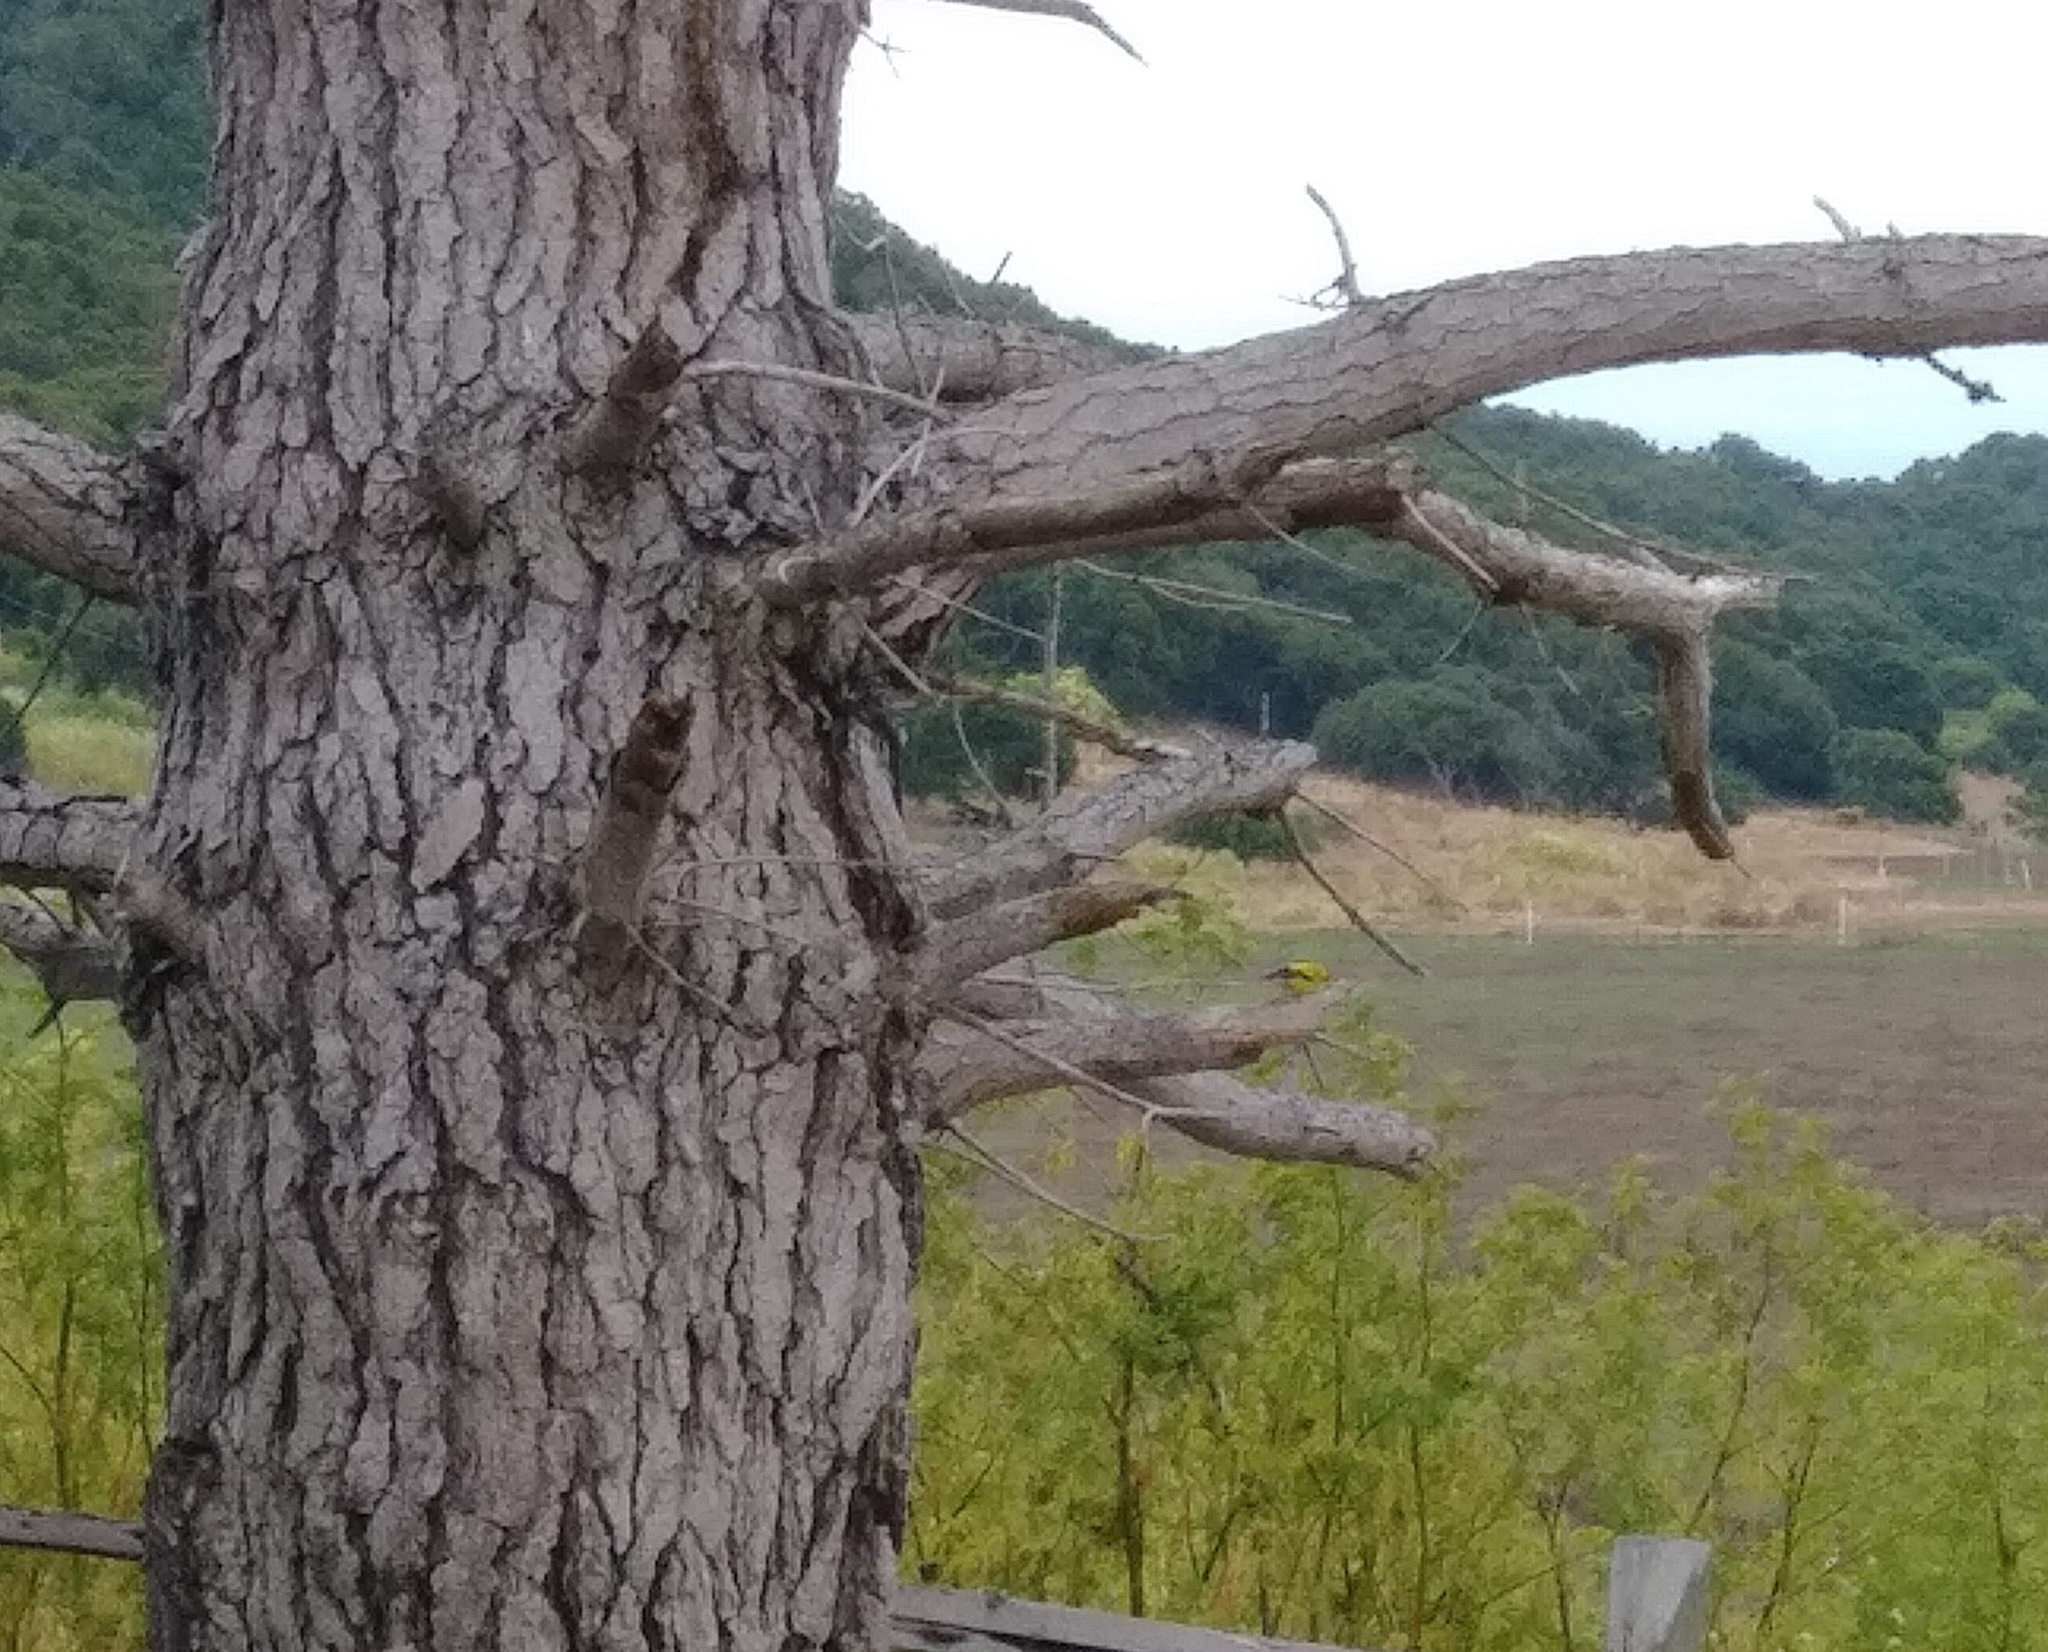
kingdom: Animalia
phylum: Chordata
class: Aves
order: Passeriformes
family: Fringillidae
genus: Spinus
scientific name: Spinus tristis
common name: American goldfinch
